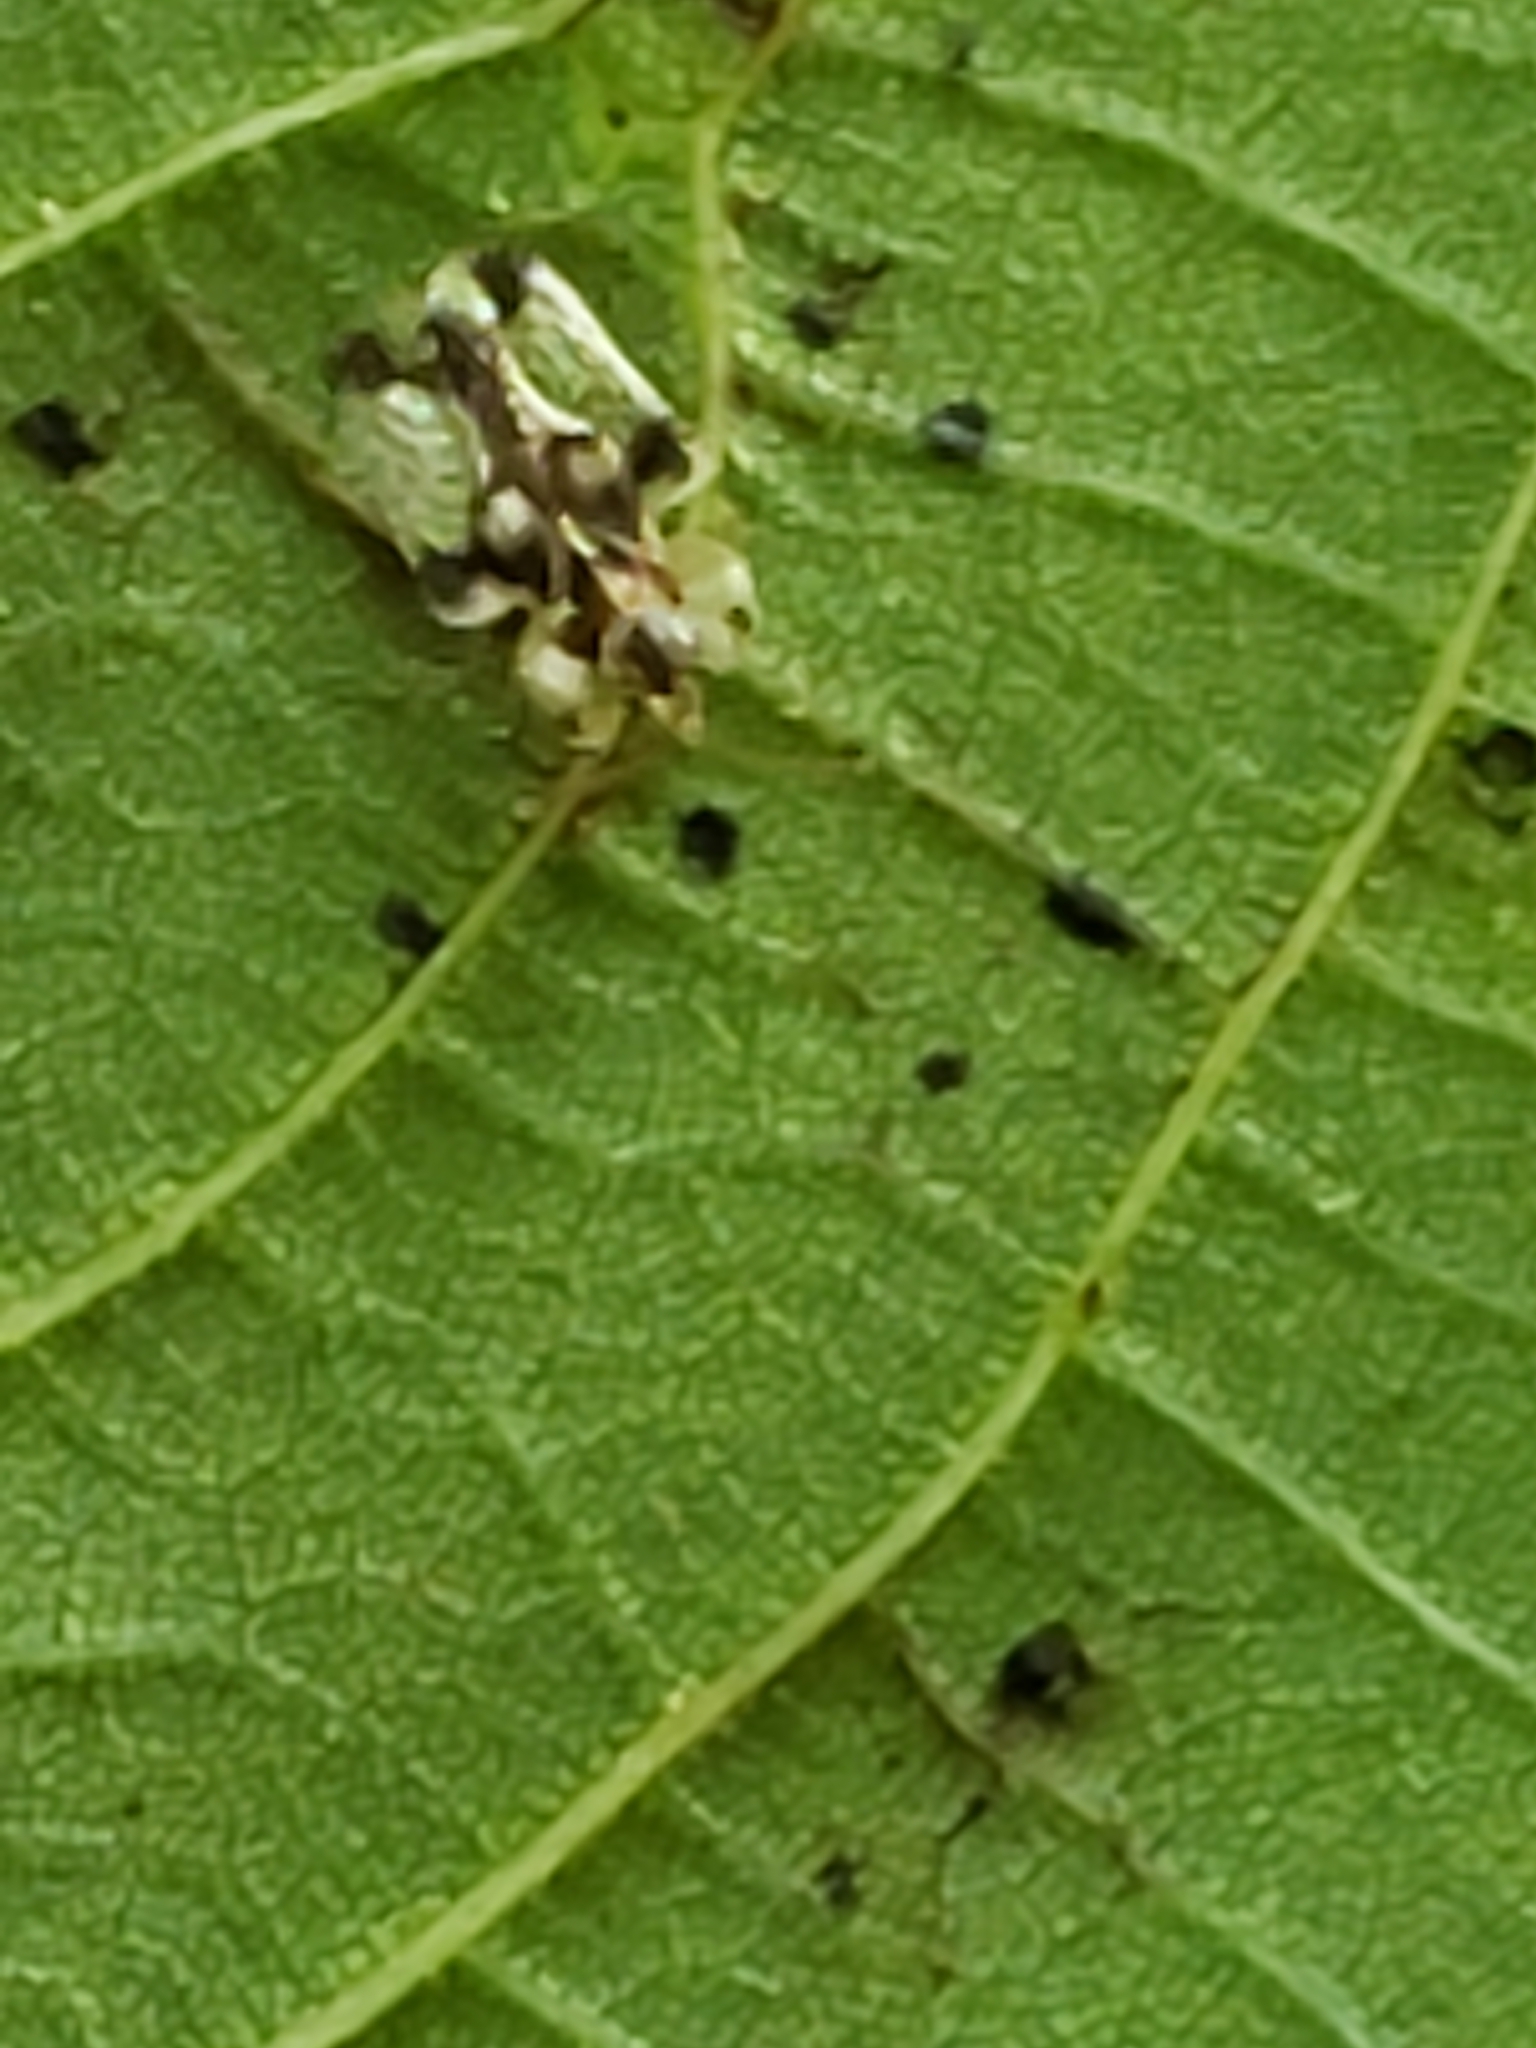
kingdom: Animalia
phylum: Arthropoda
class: Insecta
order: Hemiptera
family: Tingidae
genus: Corythucha
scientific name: Corythucha juglandis
